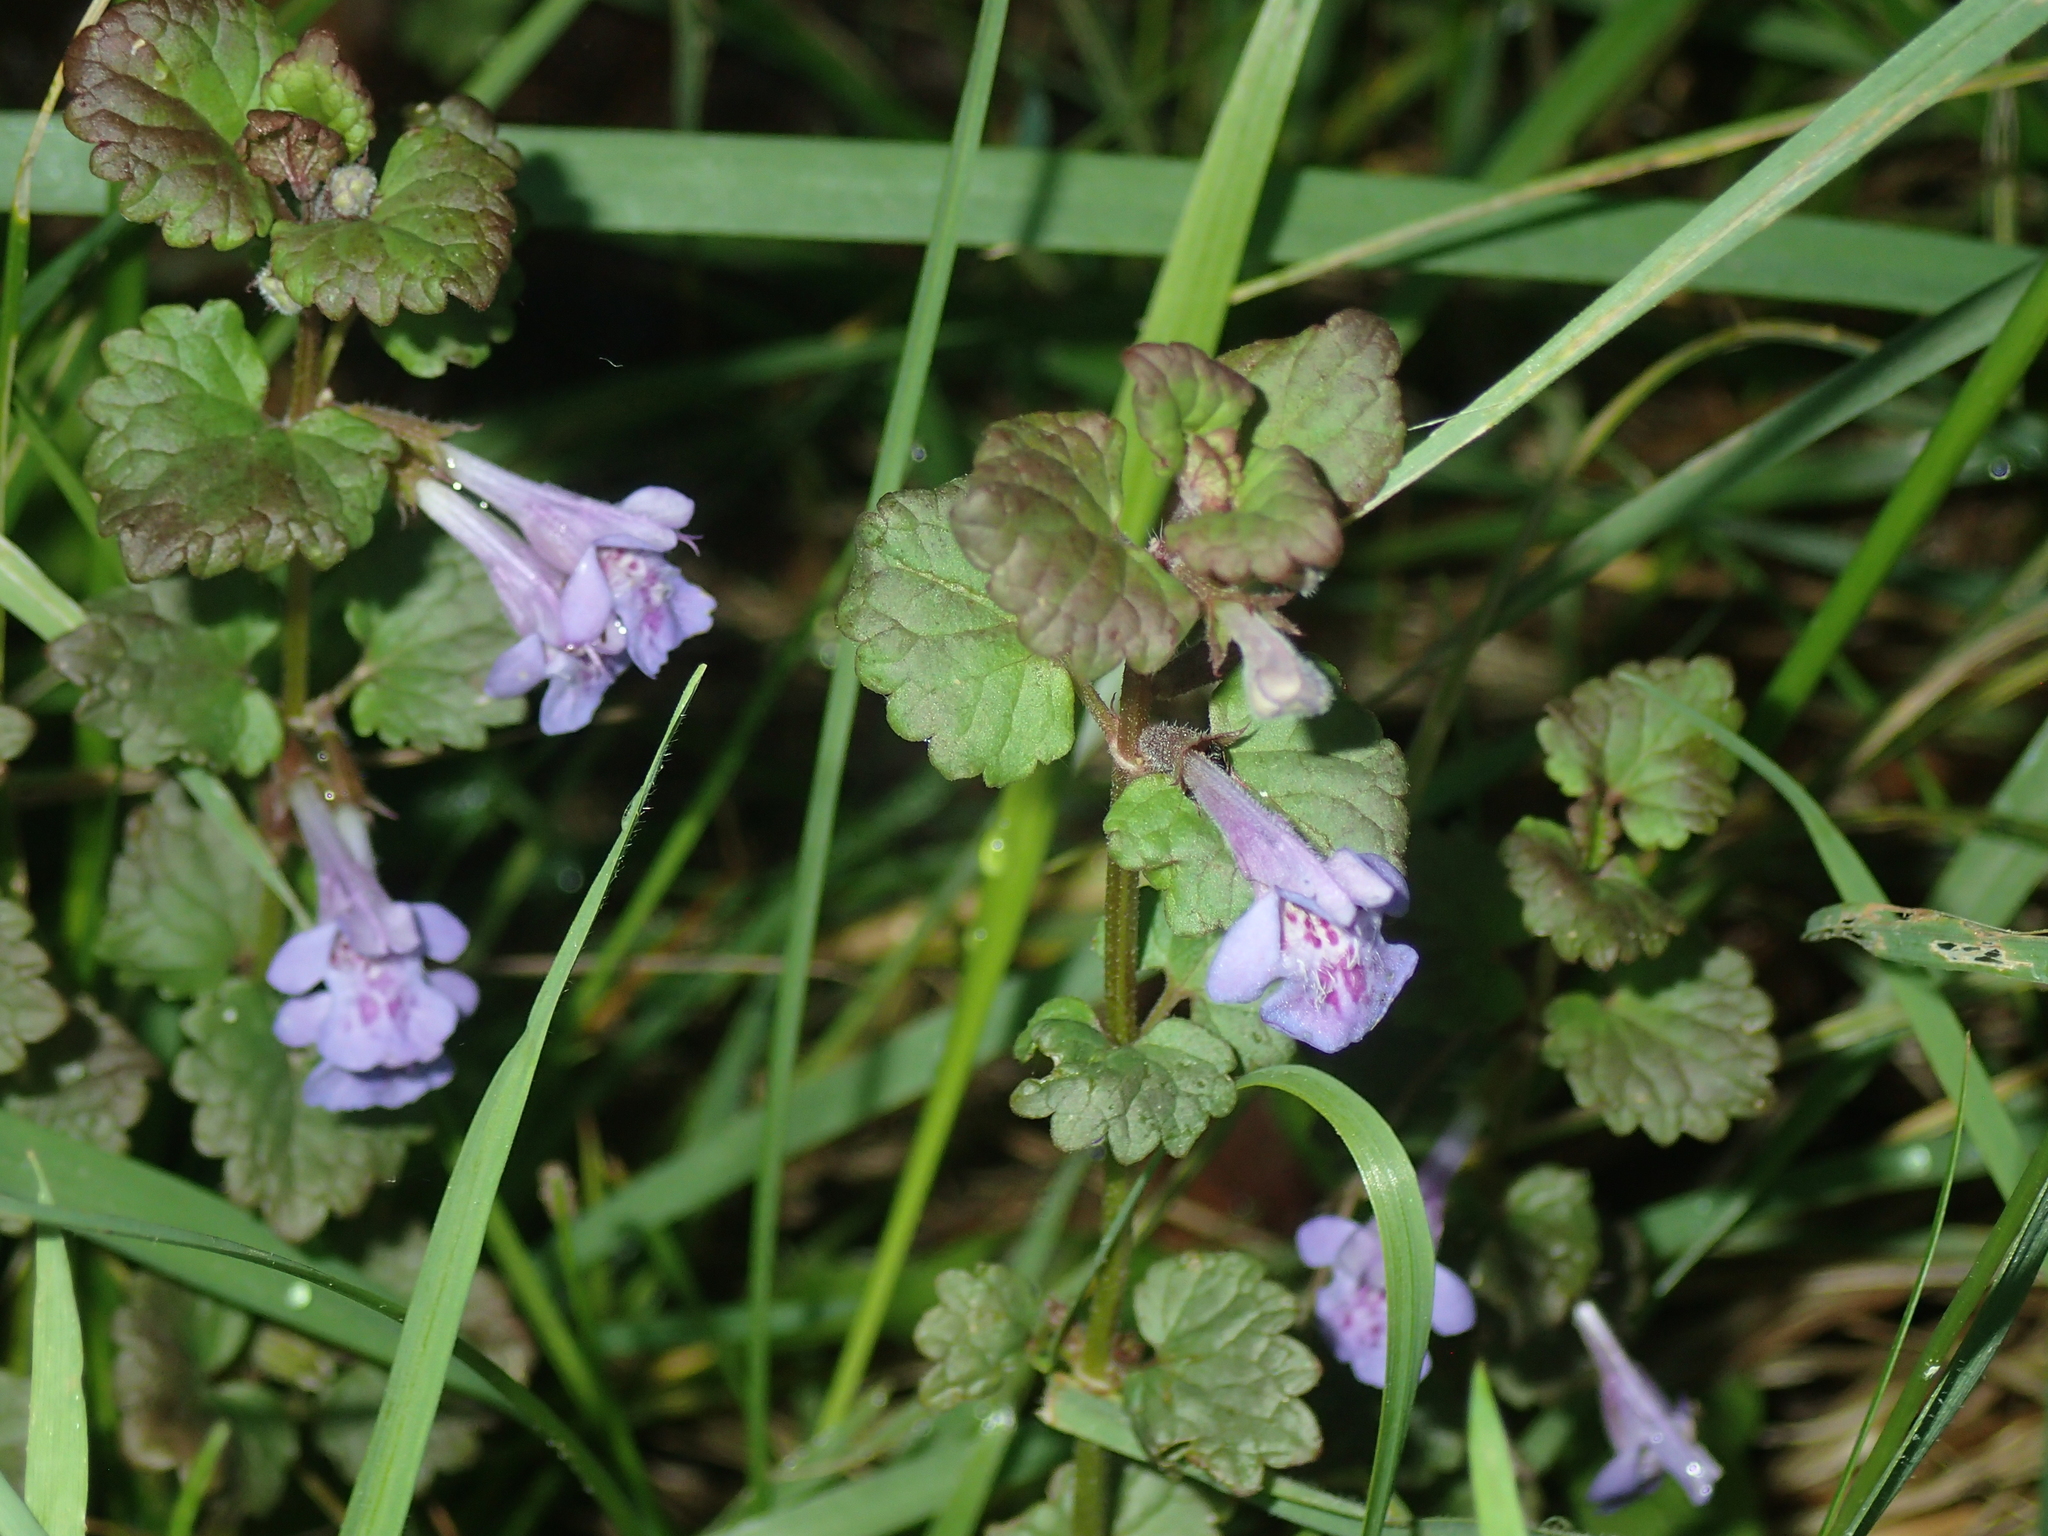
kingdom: Plantae
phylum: Tracheophyta
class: Magnoliopsida
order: Lamiales
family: Lamiaceae
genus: Glechoma
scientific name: Glechoma hederacea
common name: Ground ivy
